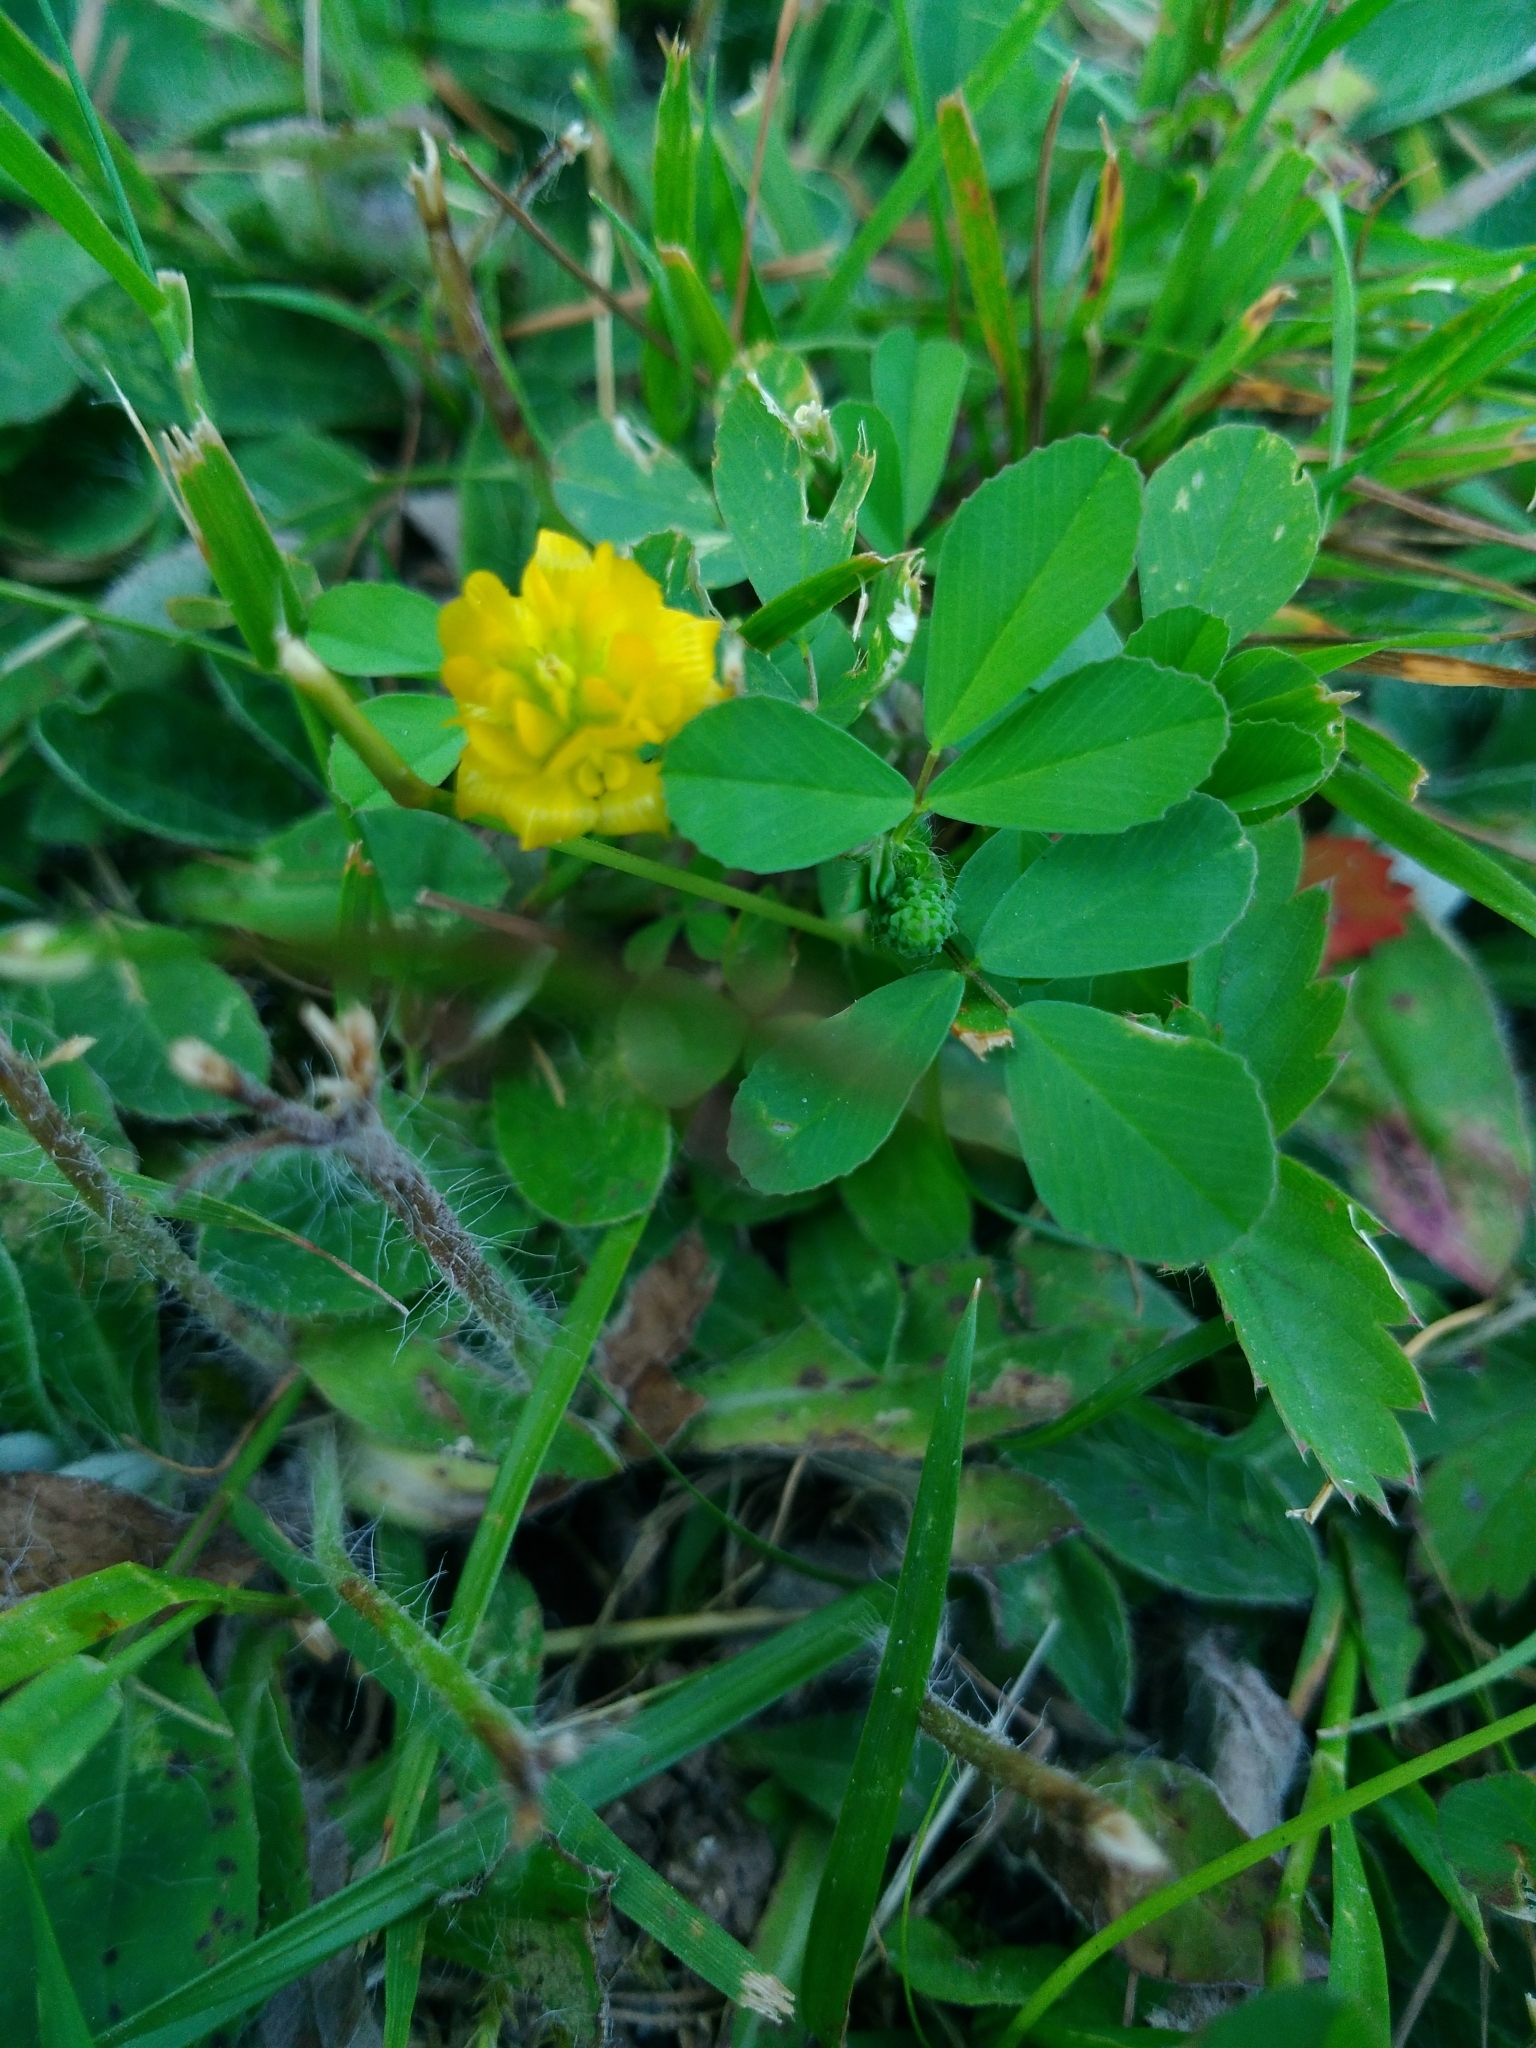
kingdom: Plantae
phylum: Tracheophyta
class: Magnoliopsida
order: Fabales
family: Fabaceae
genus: Trifolium
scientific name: Trifolium campestre
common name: Field clover
